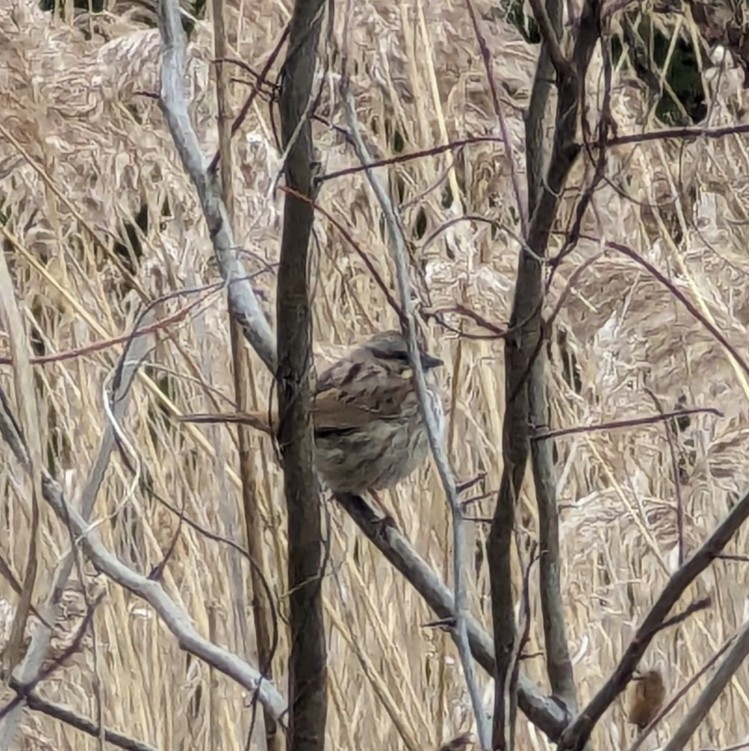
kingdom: Animalia
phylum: Chordata
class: Aves
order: Passeriformes
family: Passerellidae
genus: Melospiza
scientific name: Melospiza melodia
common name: Song sparrow
